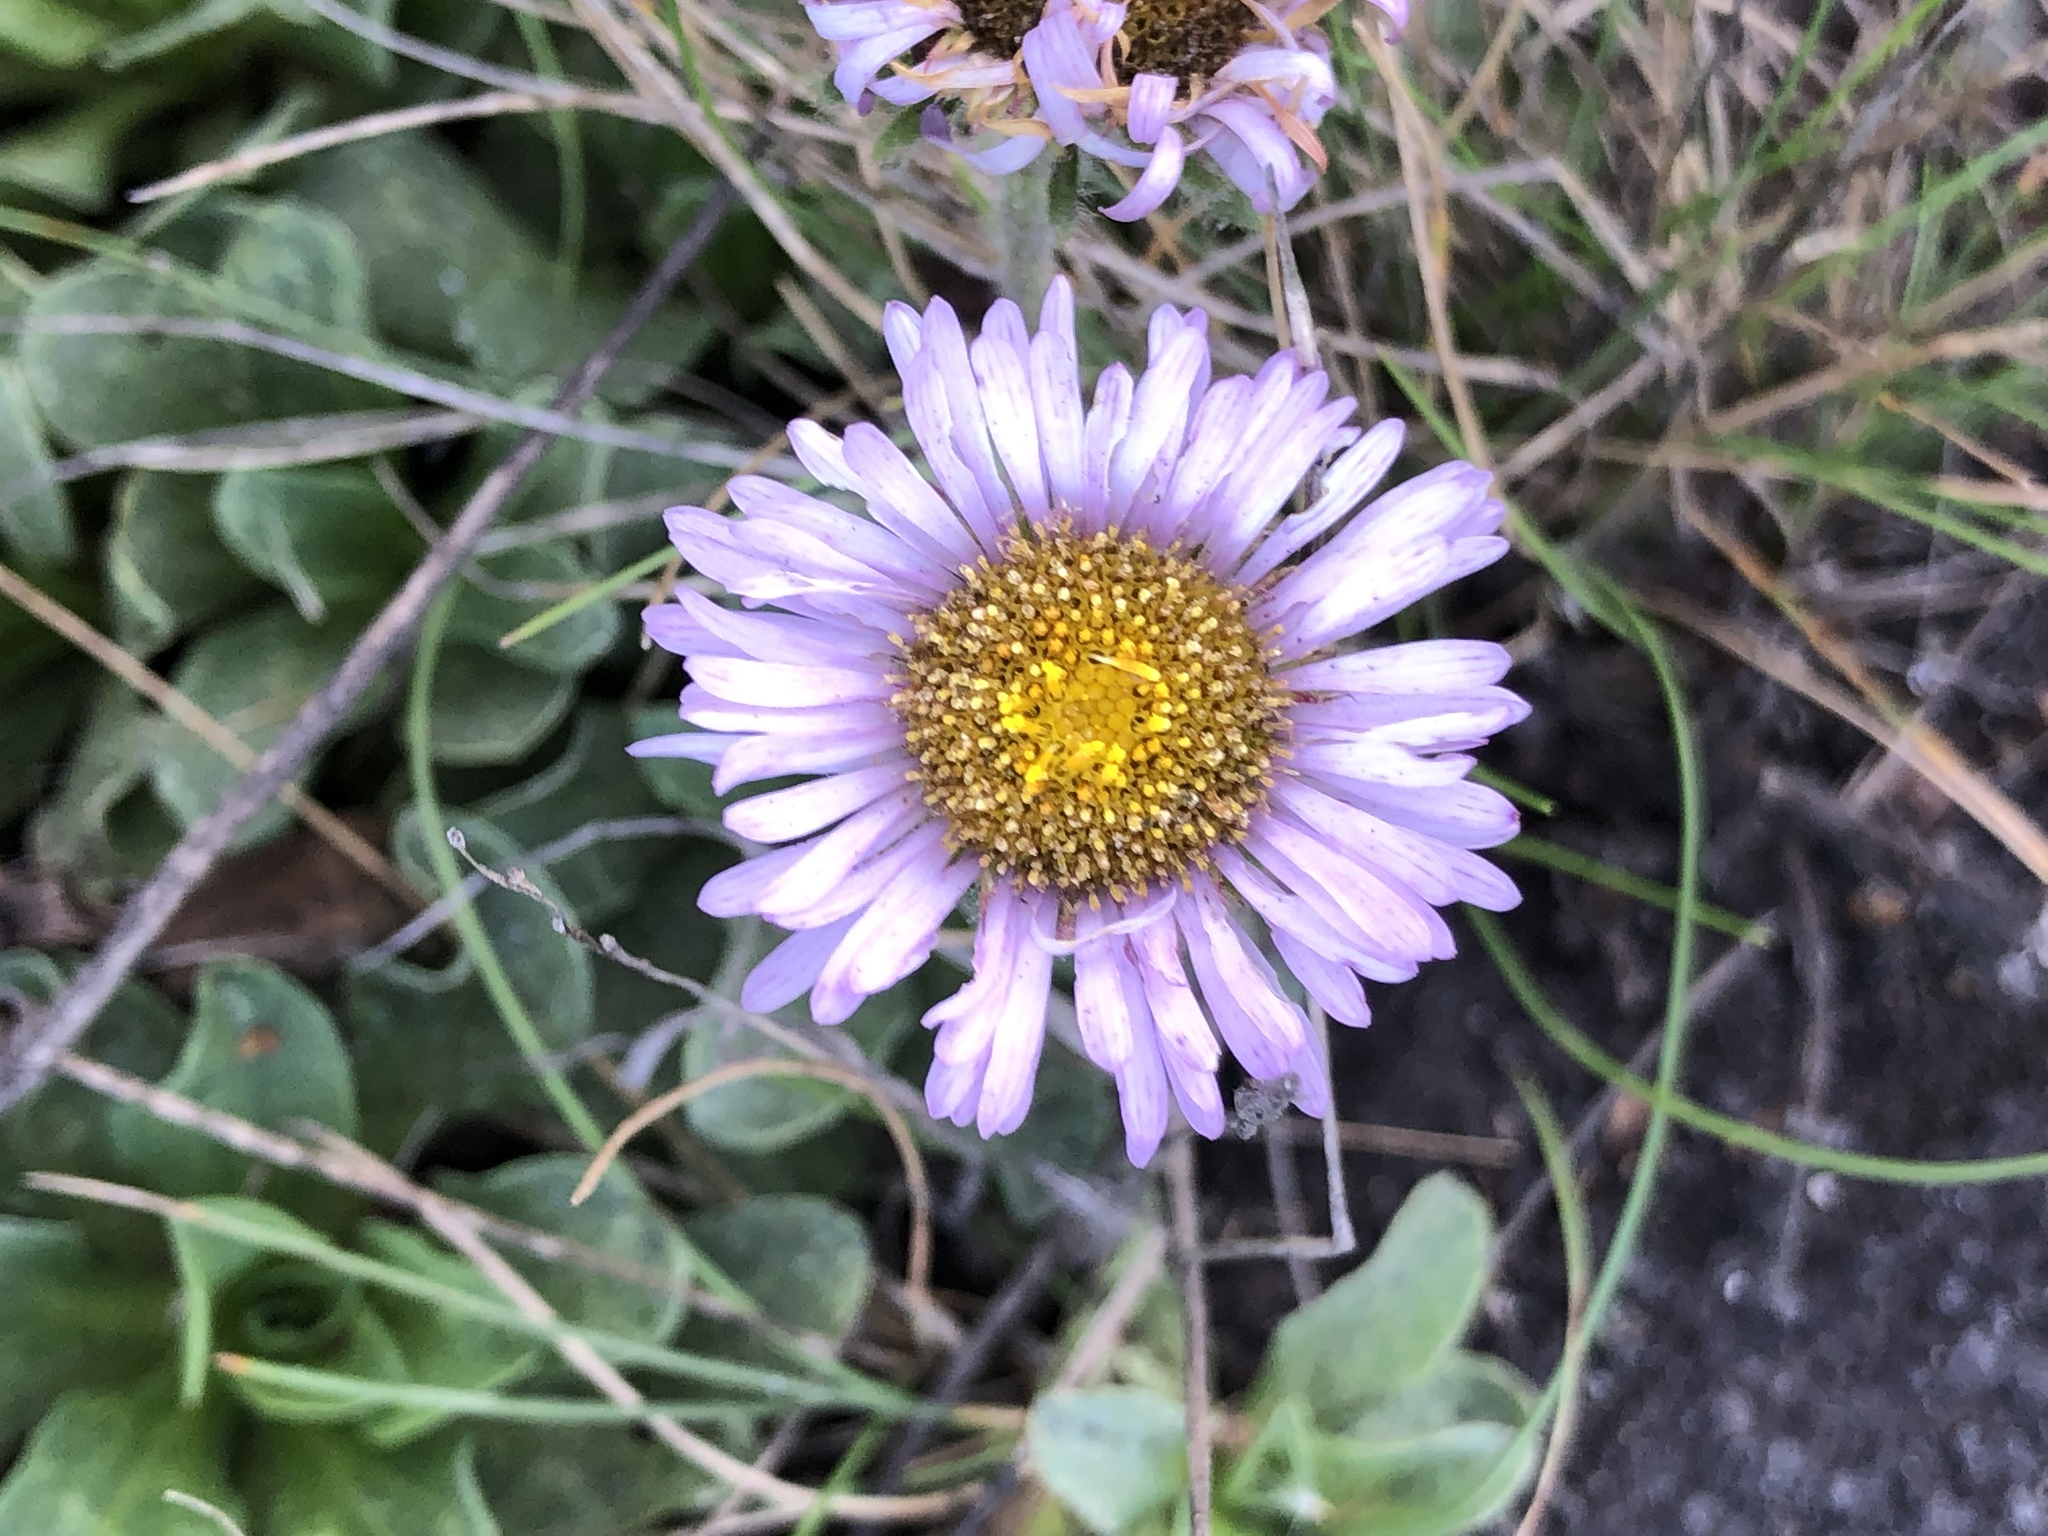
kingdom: Plantae
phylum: Tracheophyta
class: Magnoliopsida
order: Asterales
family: Asteraceae
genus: Erigeron
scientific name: Erigeron glaucus
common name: Seaside daisy
